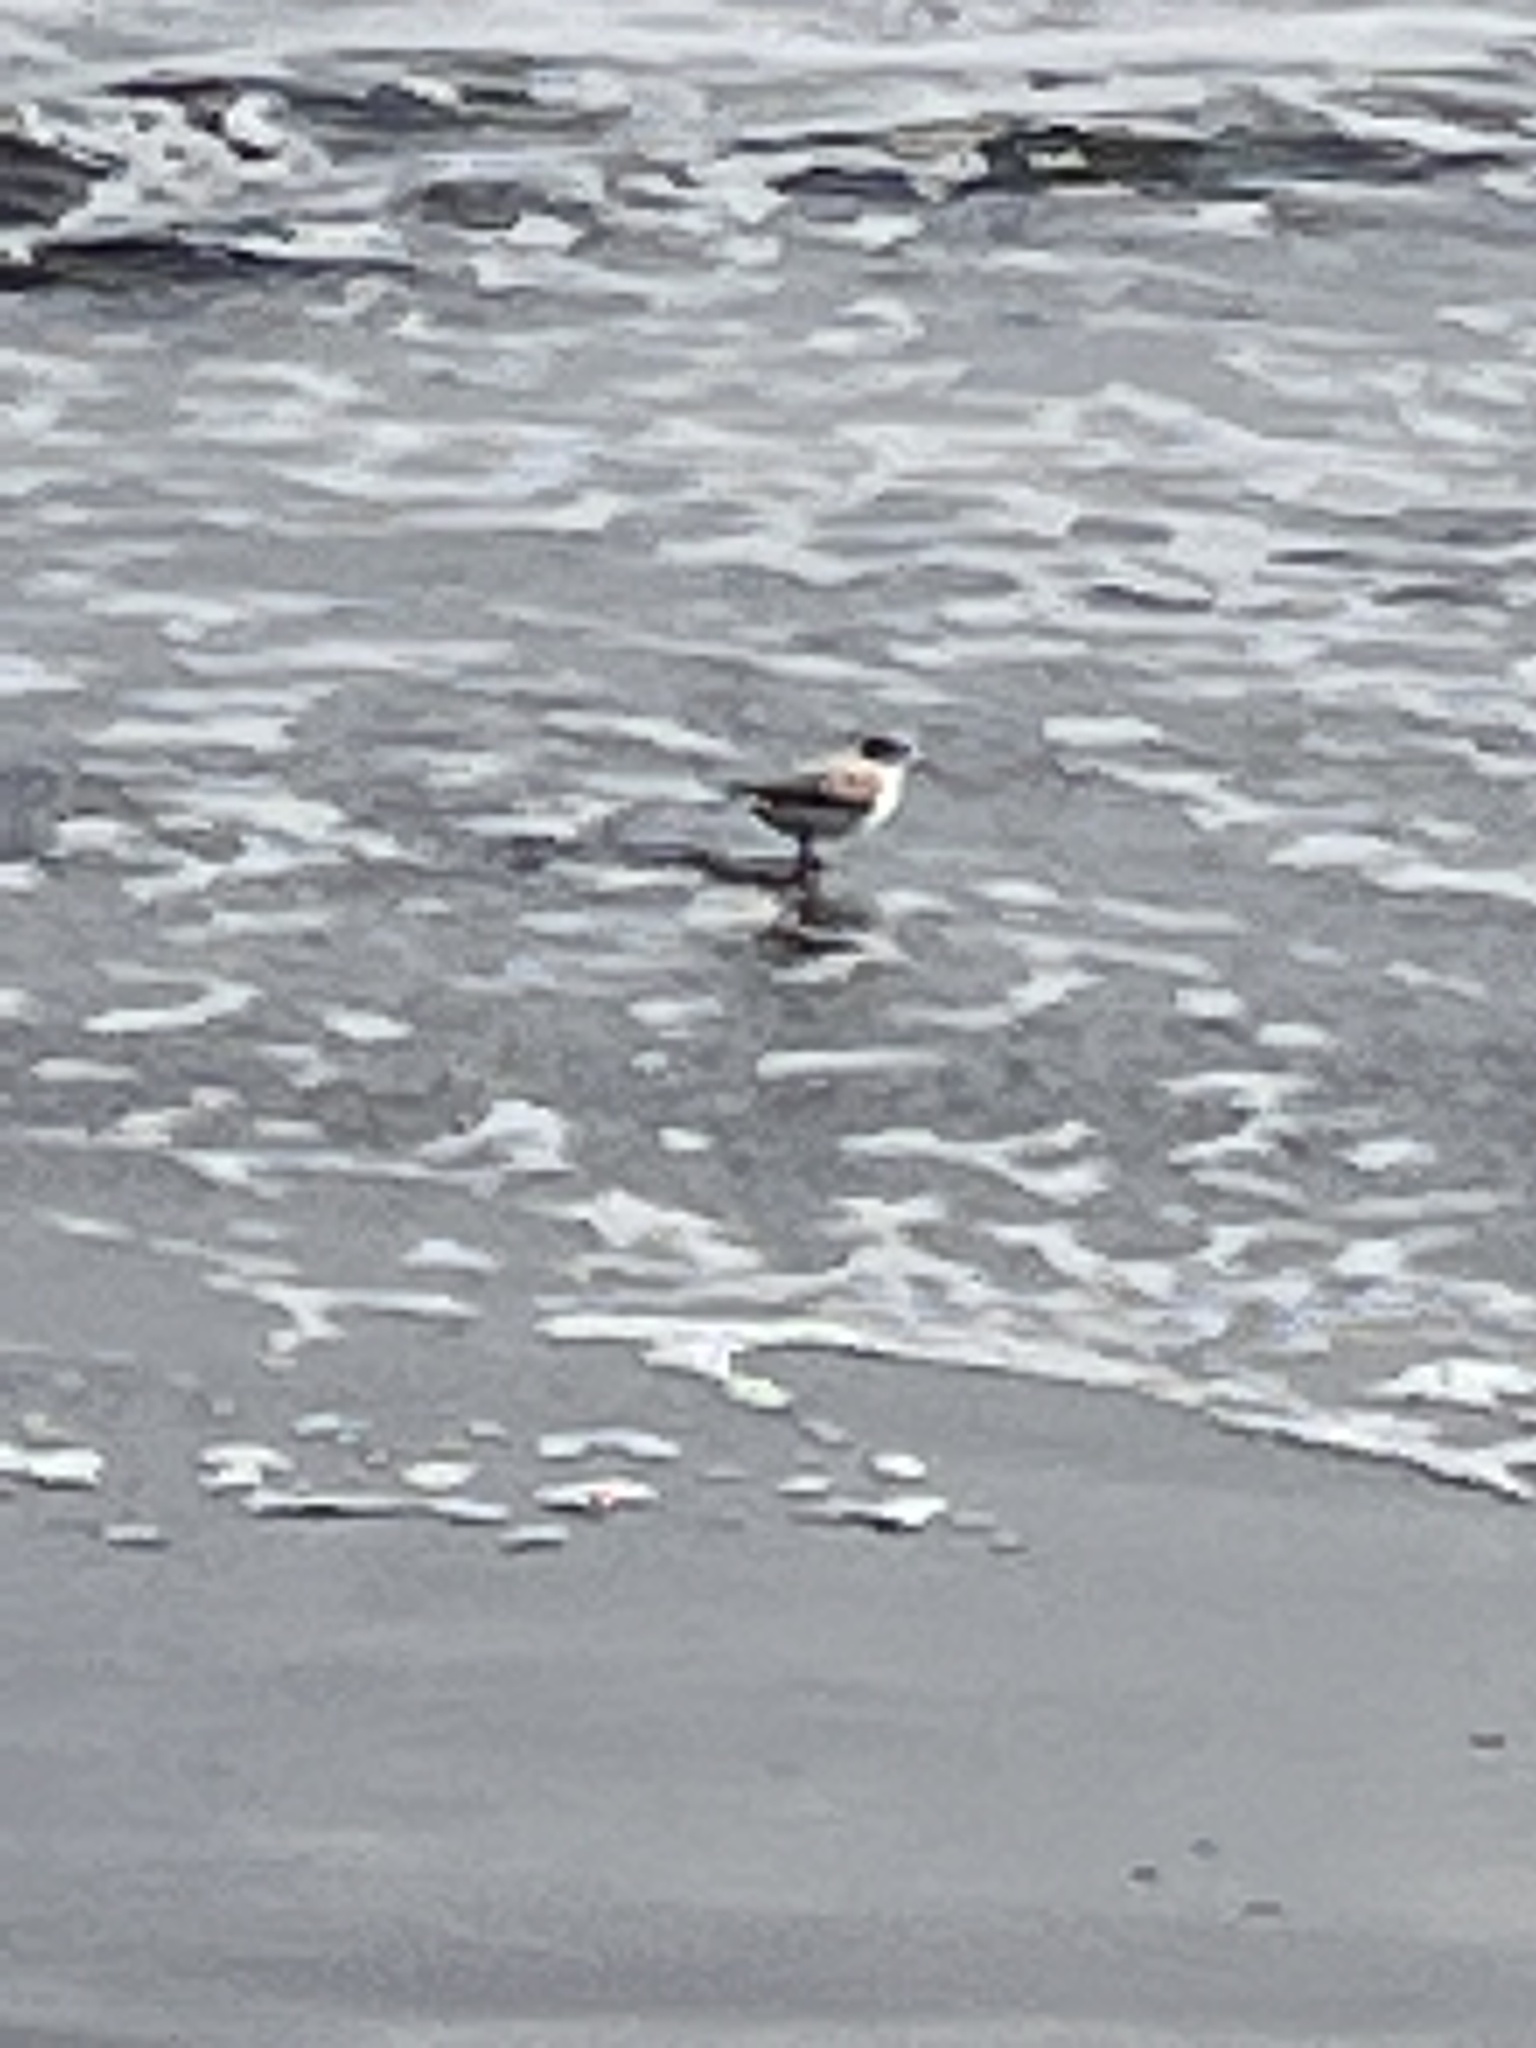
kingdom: Animalia
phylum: Chordata
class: Aves
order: Charadriiformes
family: Scolopacidae
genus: Calidris
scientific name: Calidris alba
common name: Sanderling
